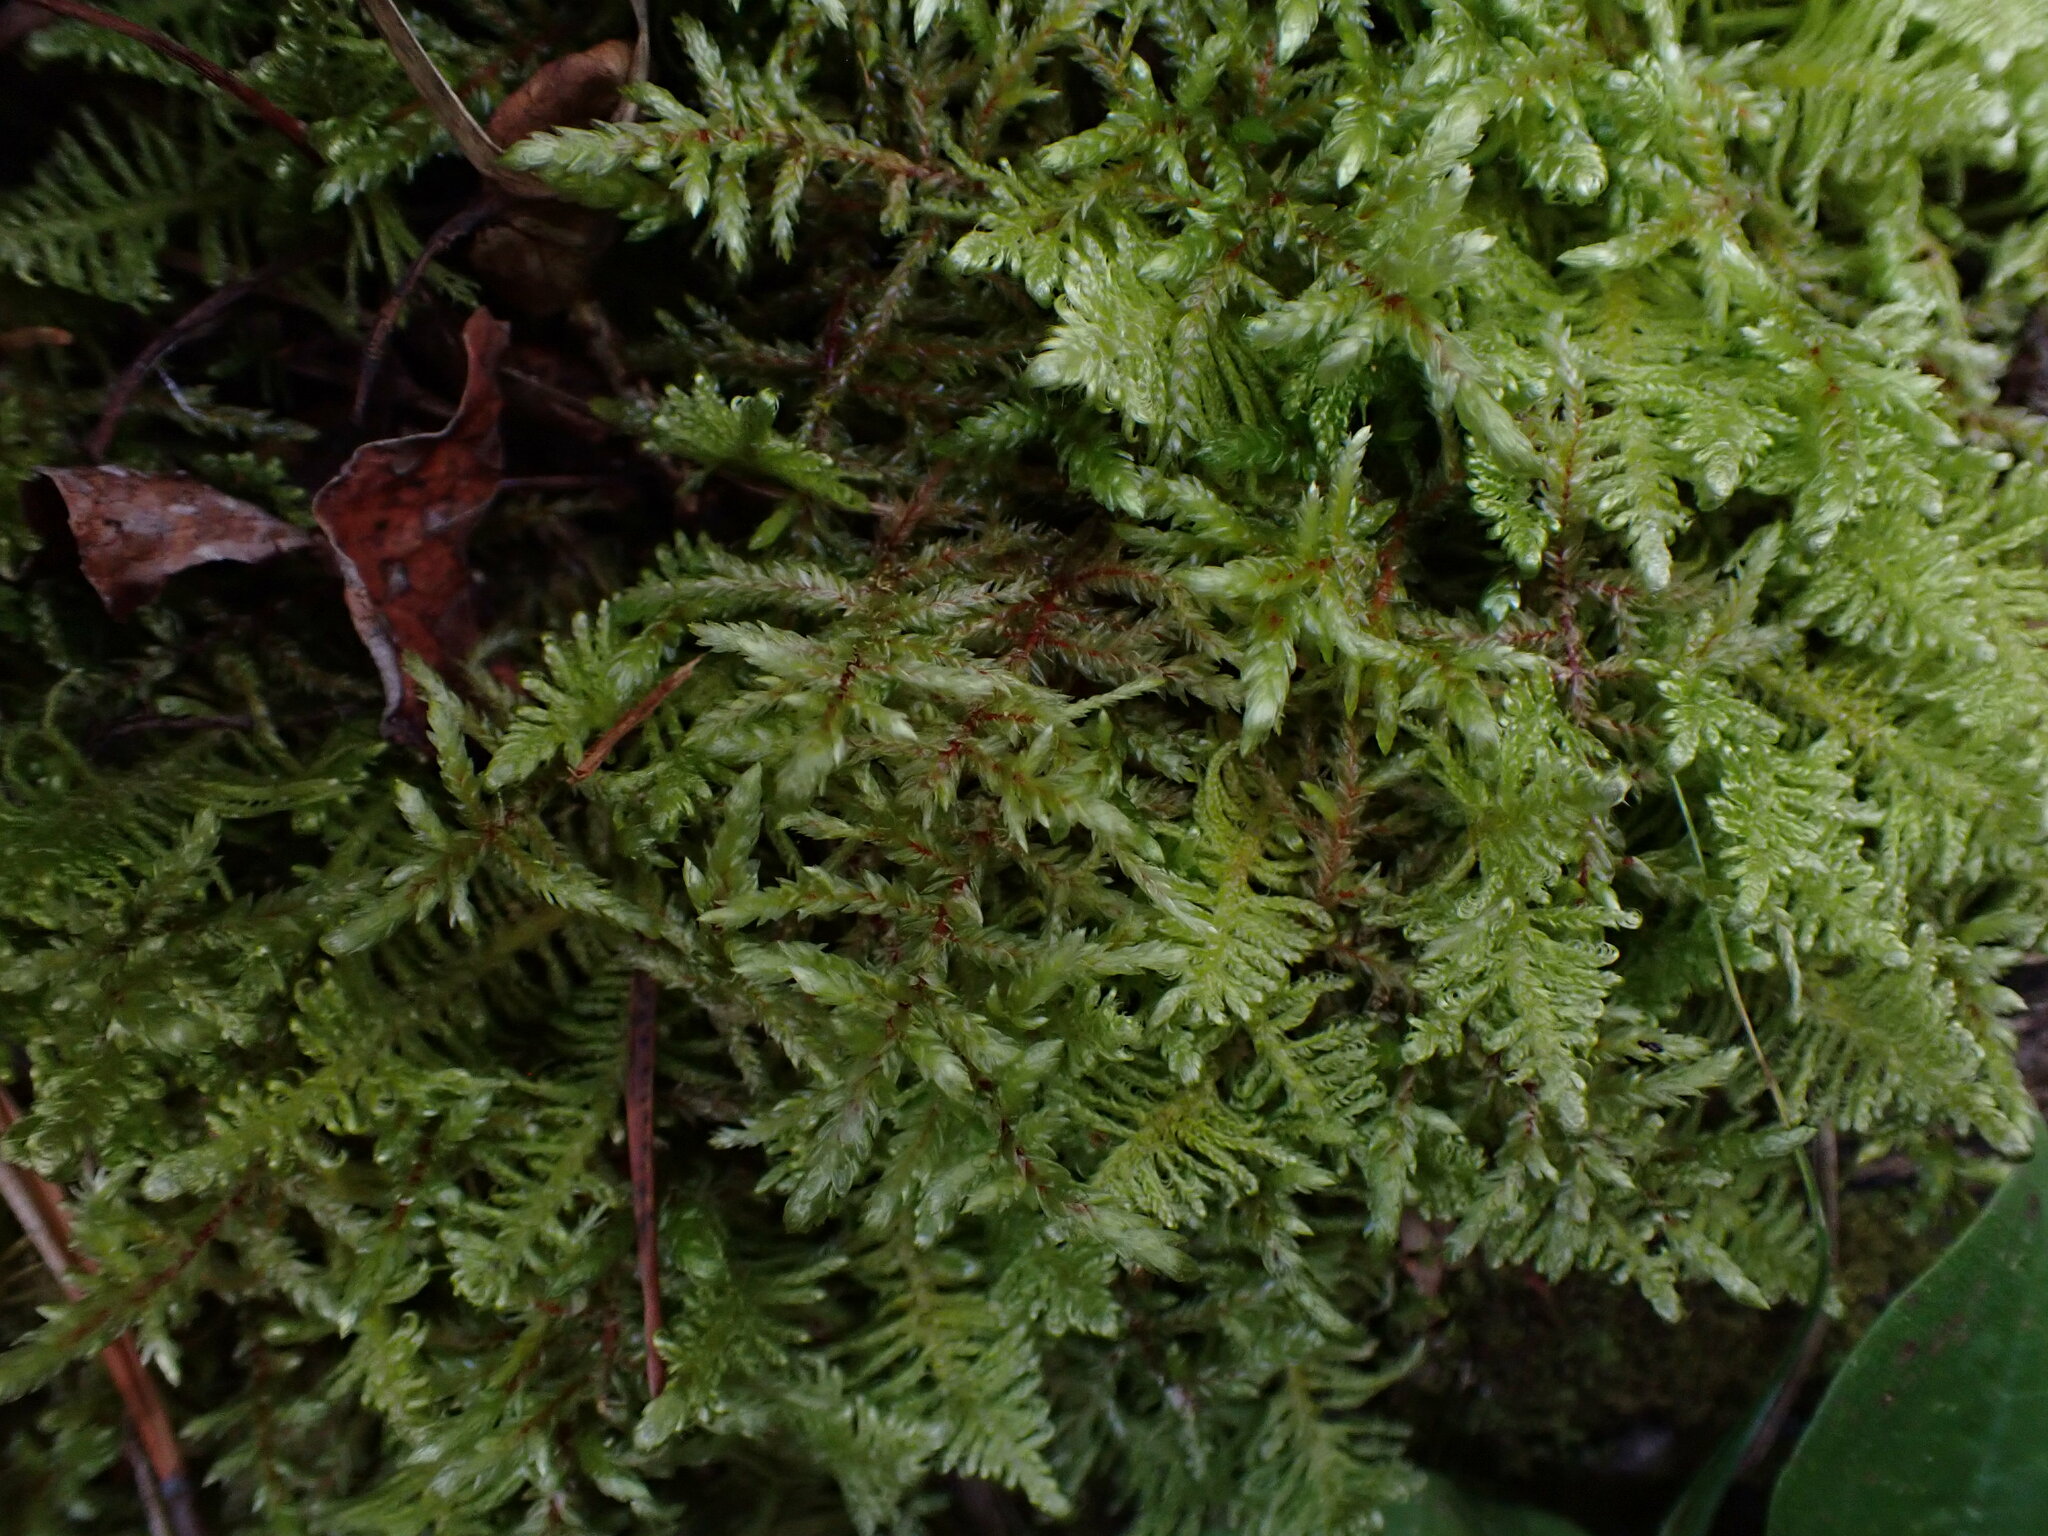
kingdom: Plantae
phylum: Bryophyta
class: Bryopsida
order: Hypnales
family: Hylocomiaceae
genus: Pleurozium
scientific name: Pleurozium schreberi
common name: Red-stemmed feather moss
